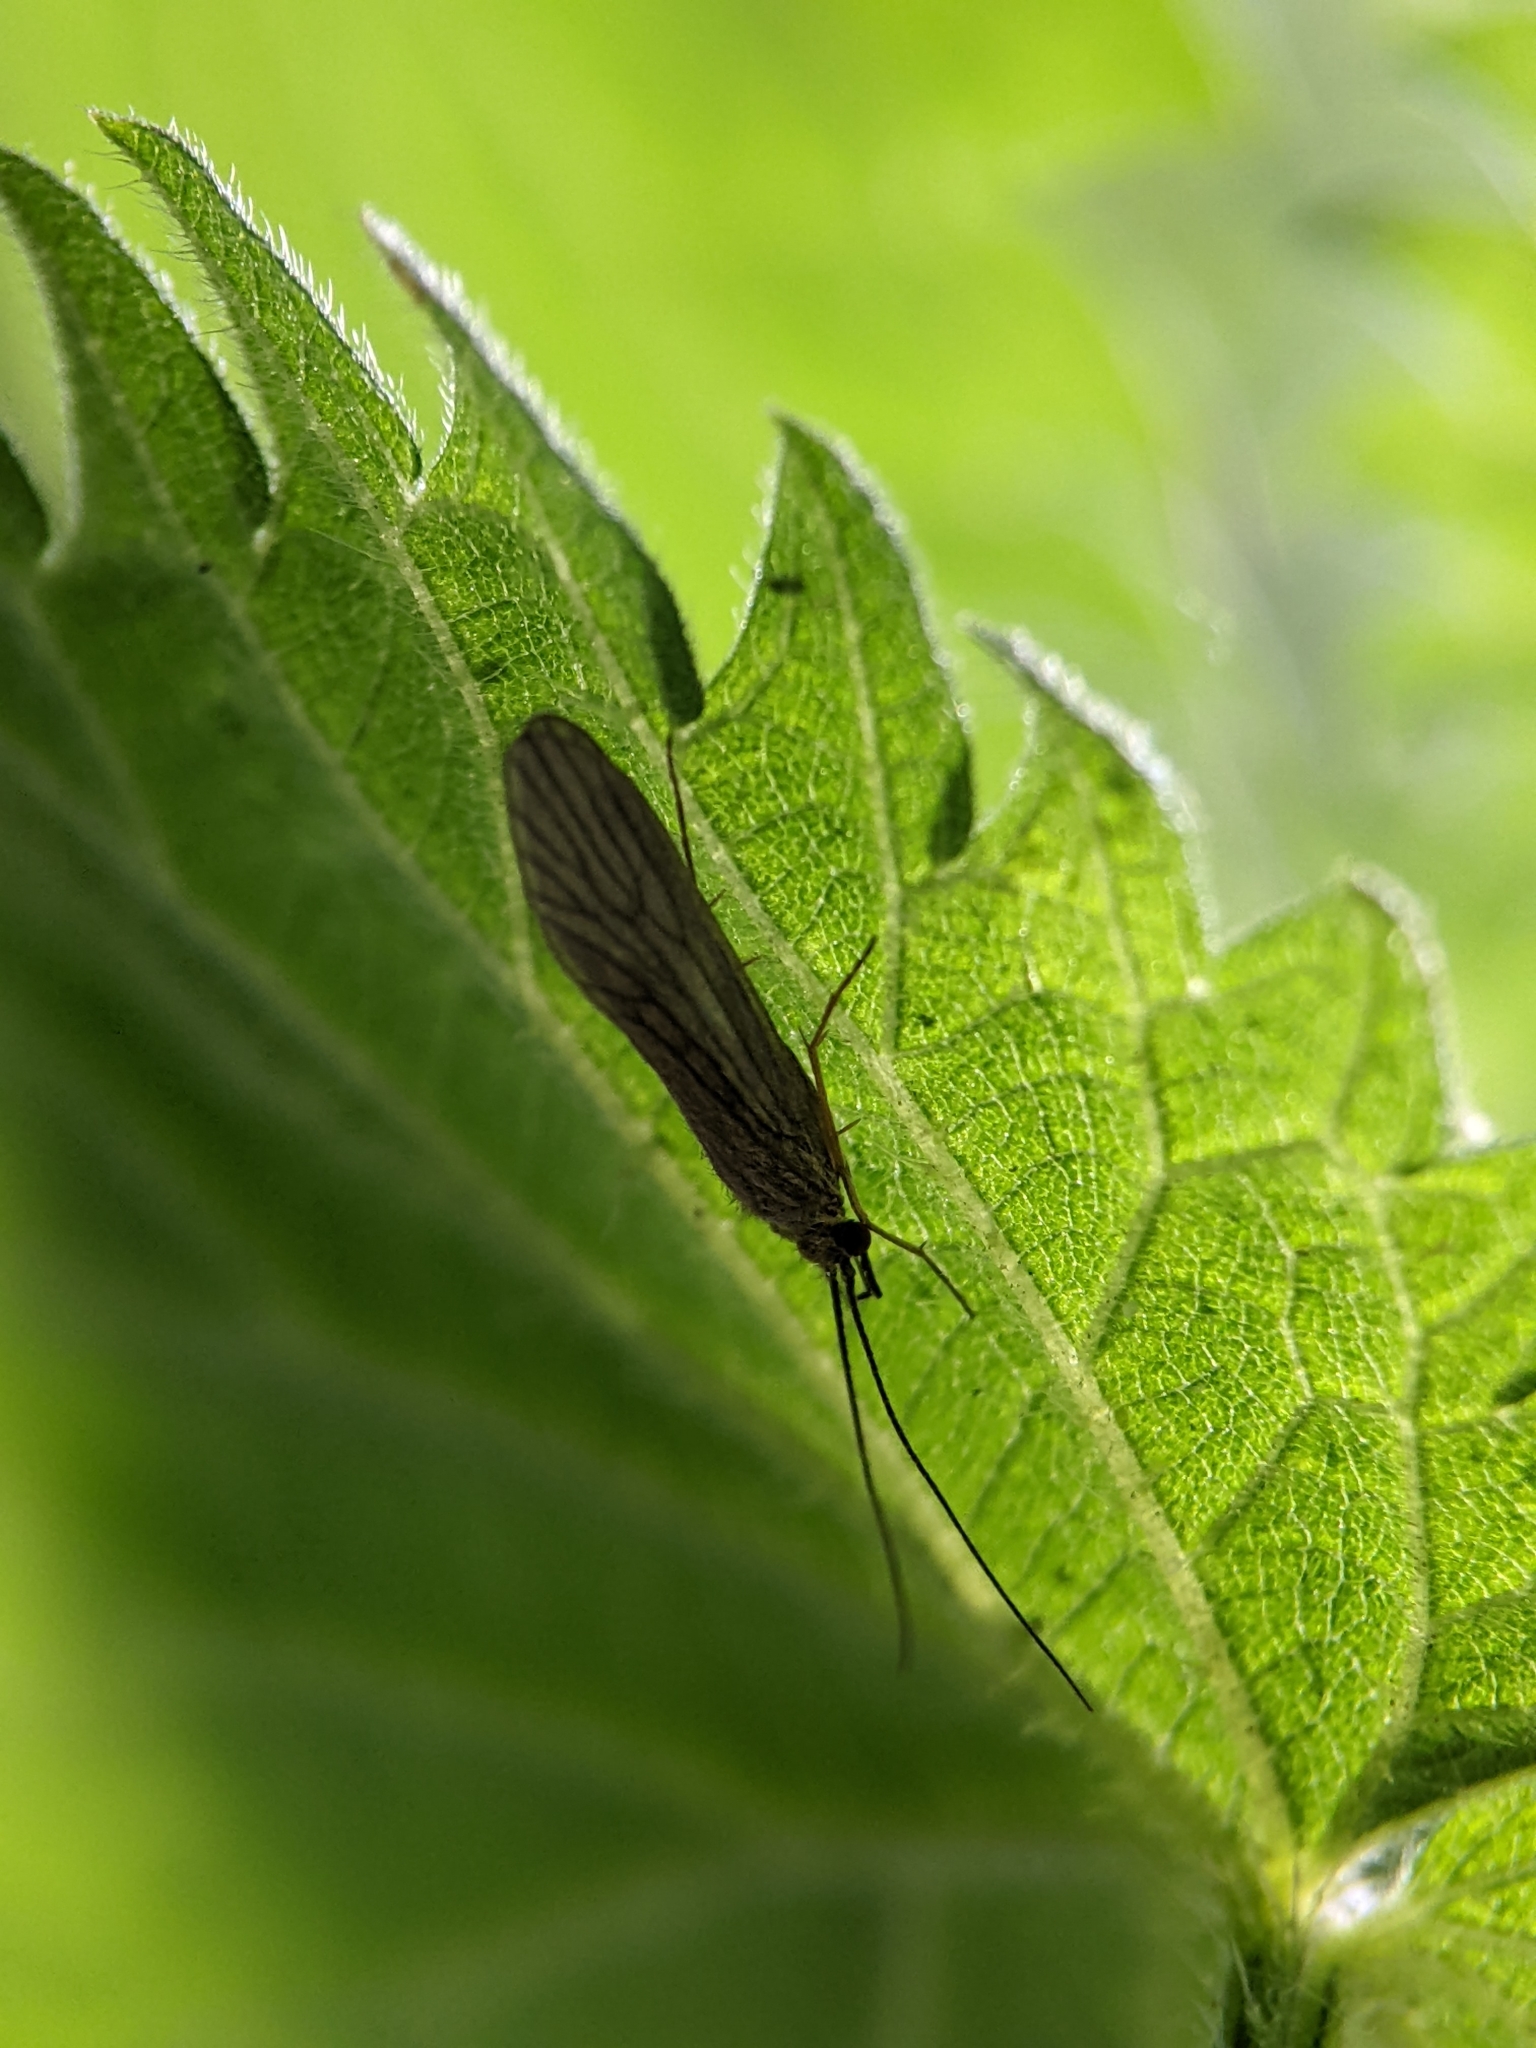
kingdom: Animalia
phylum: Arthropoda
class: Insecta
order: Trichoptera
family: Psychomyiidae
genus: Tinodes
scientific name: Tinodes waeneri
